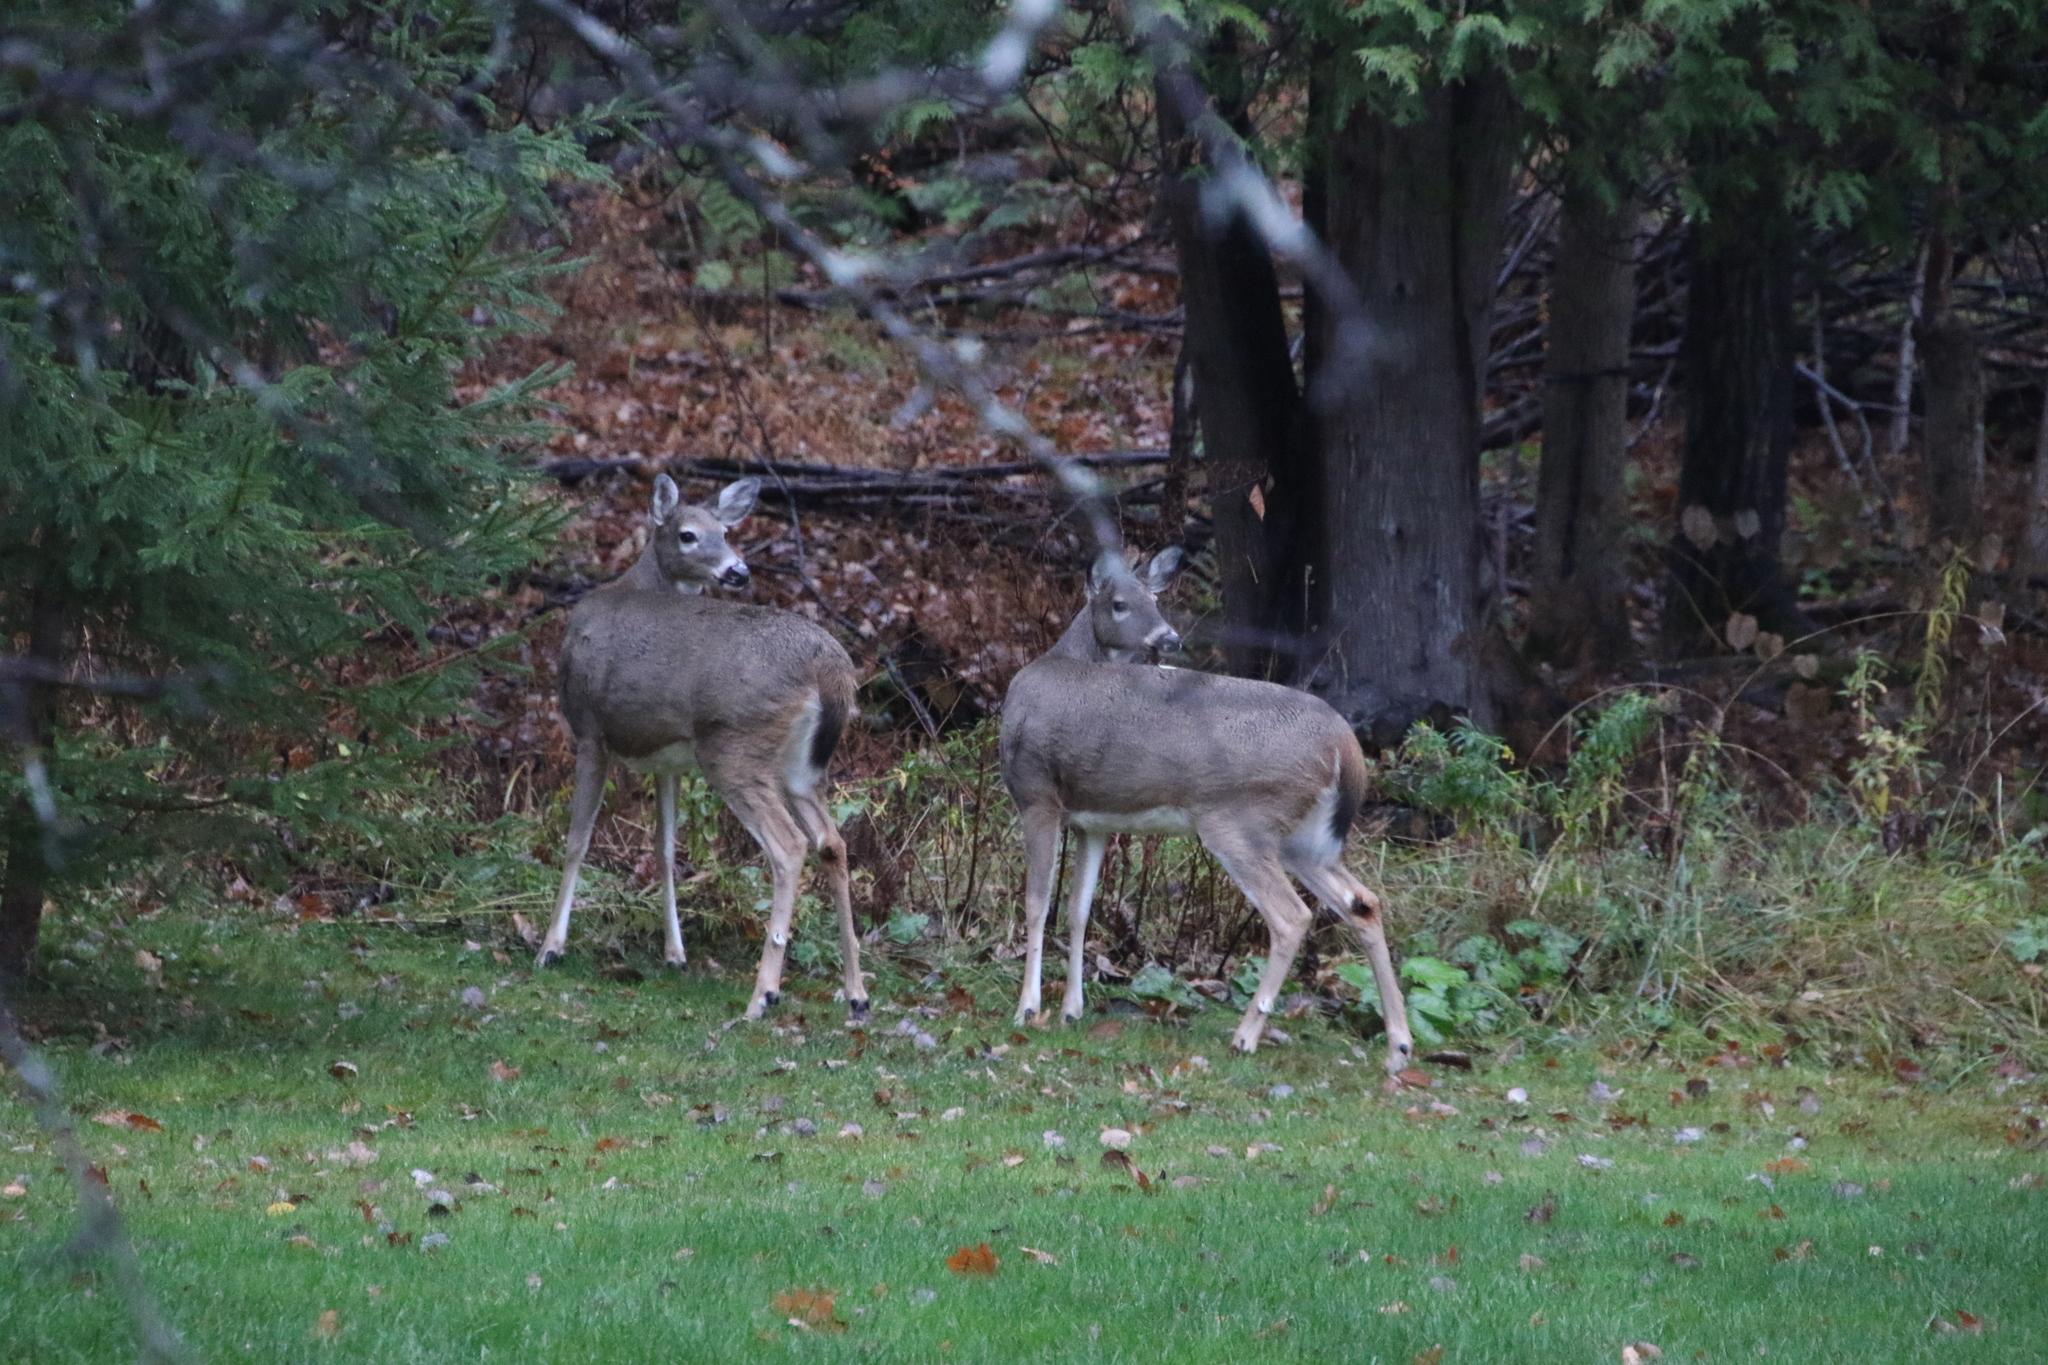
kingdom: Animalia
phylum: Chordata
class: Mammalia
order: Artiodactyla
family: Cervidae
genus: Odocoileus
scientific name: Odocoileus virginianus
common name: White-tailed deer
